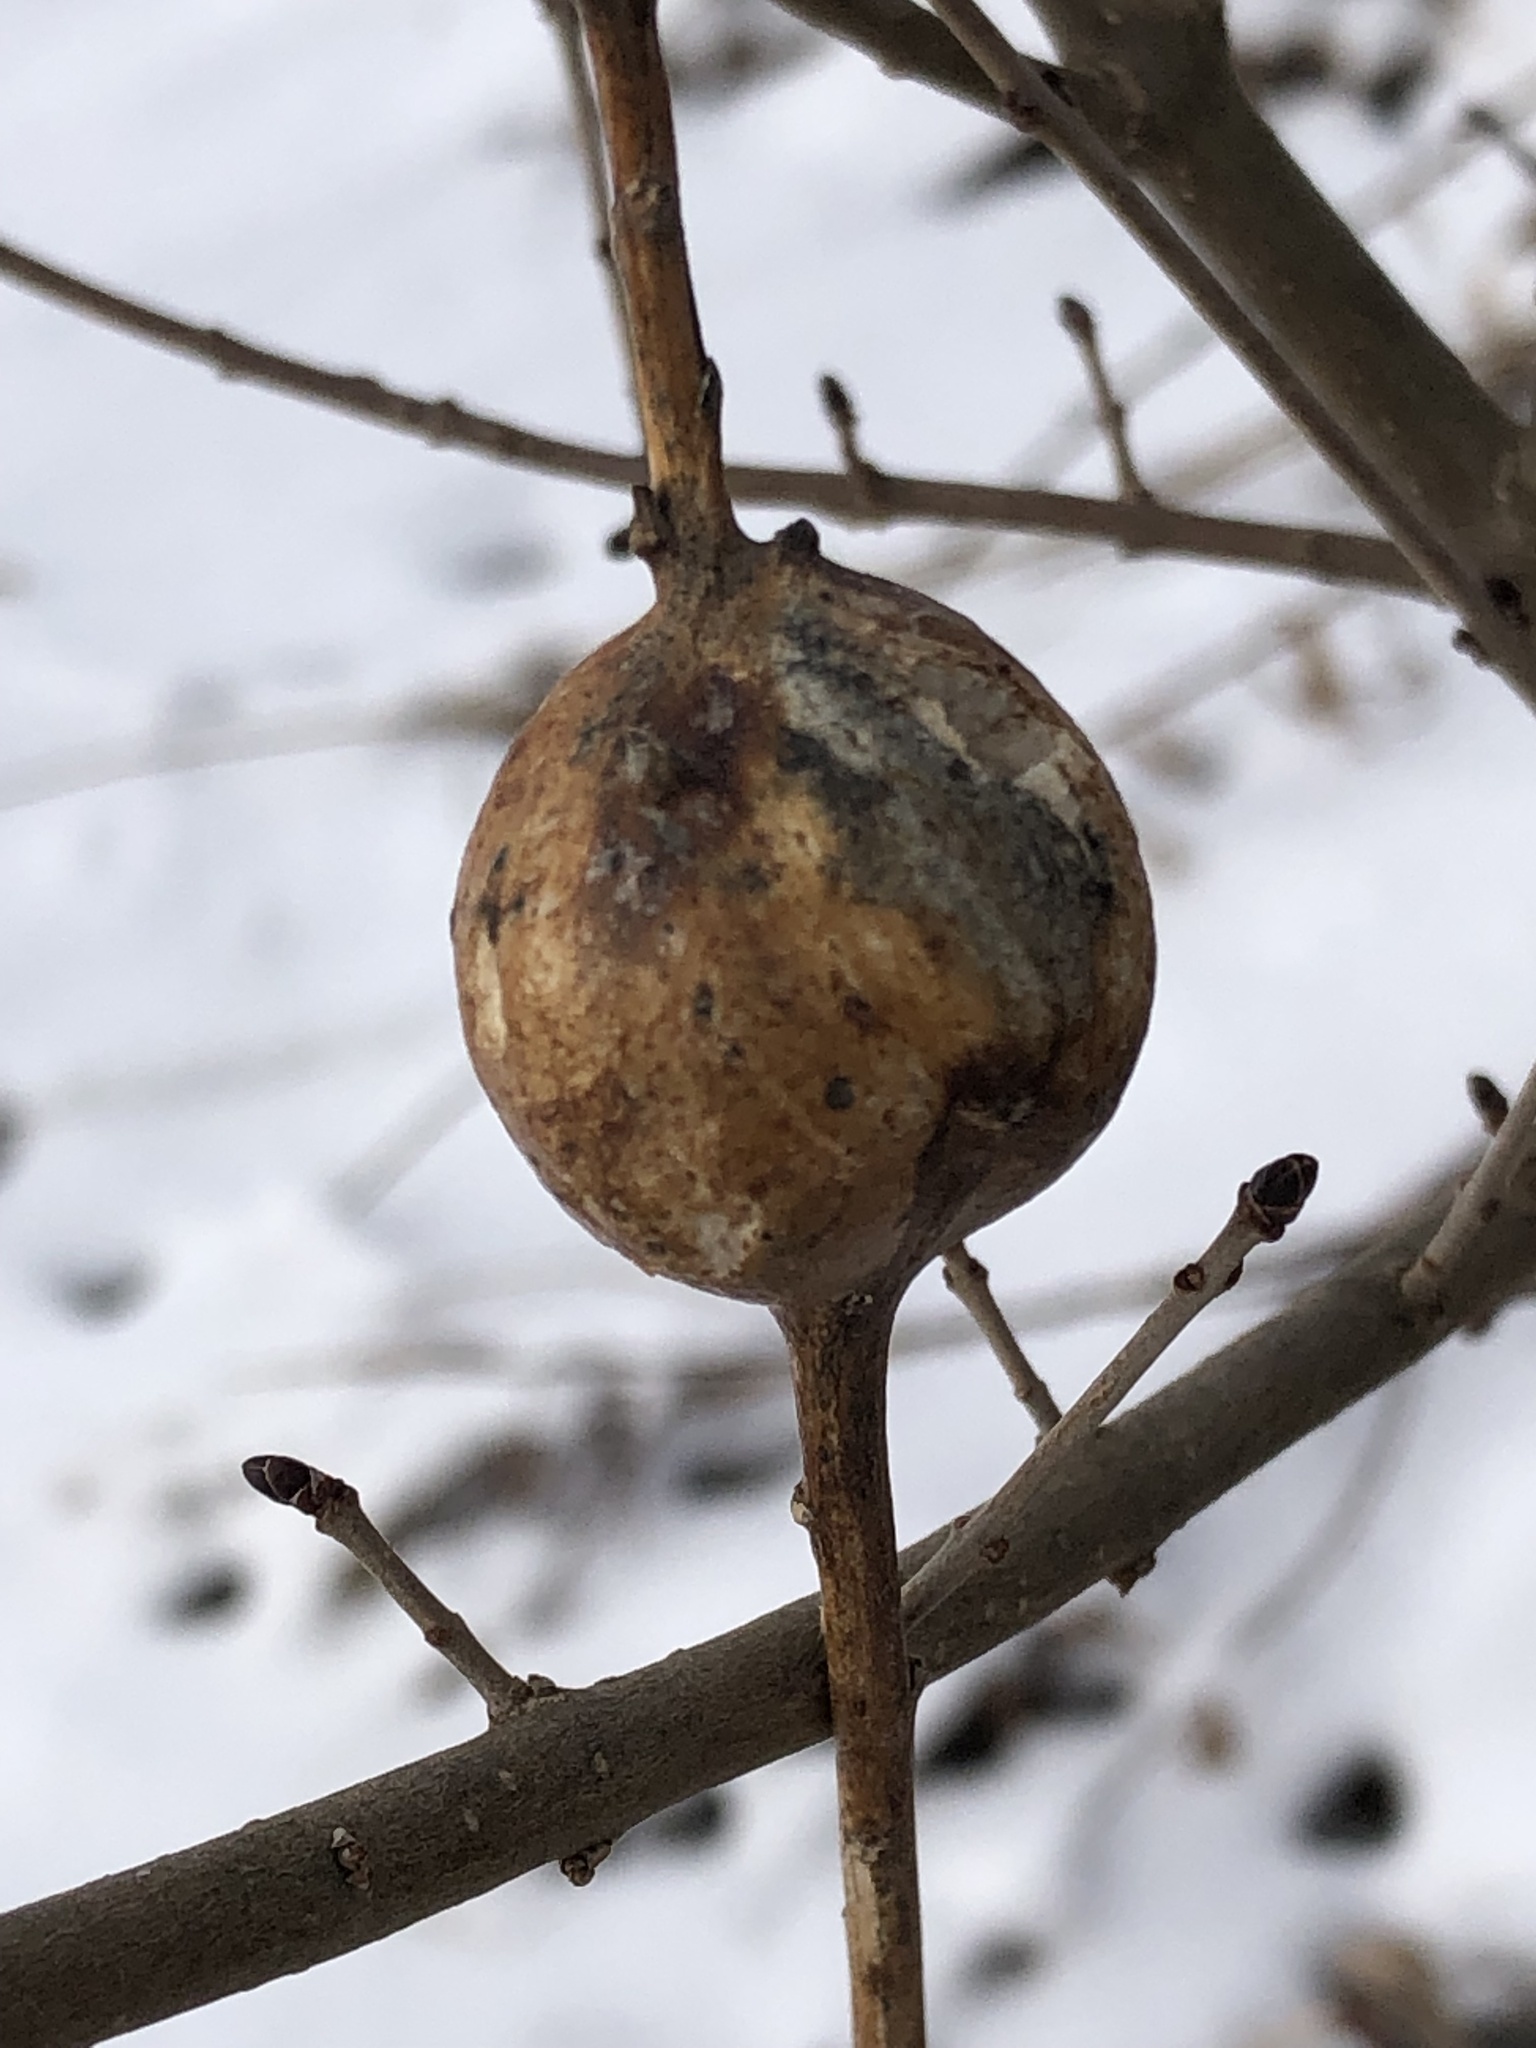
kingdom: Animalia
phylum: Arthropoda
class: Insecta
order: Diptera
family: Tephritidae
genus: Eurosta
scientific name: Eurosta solidaginis
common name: Goldenrod gall fly
